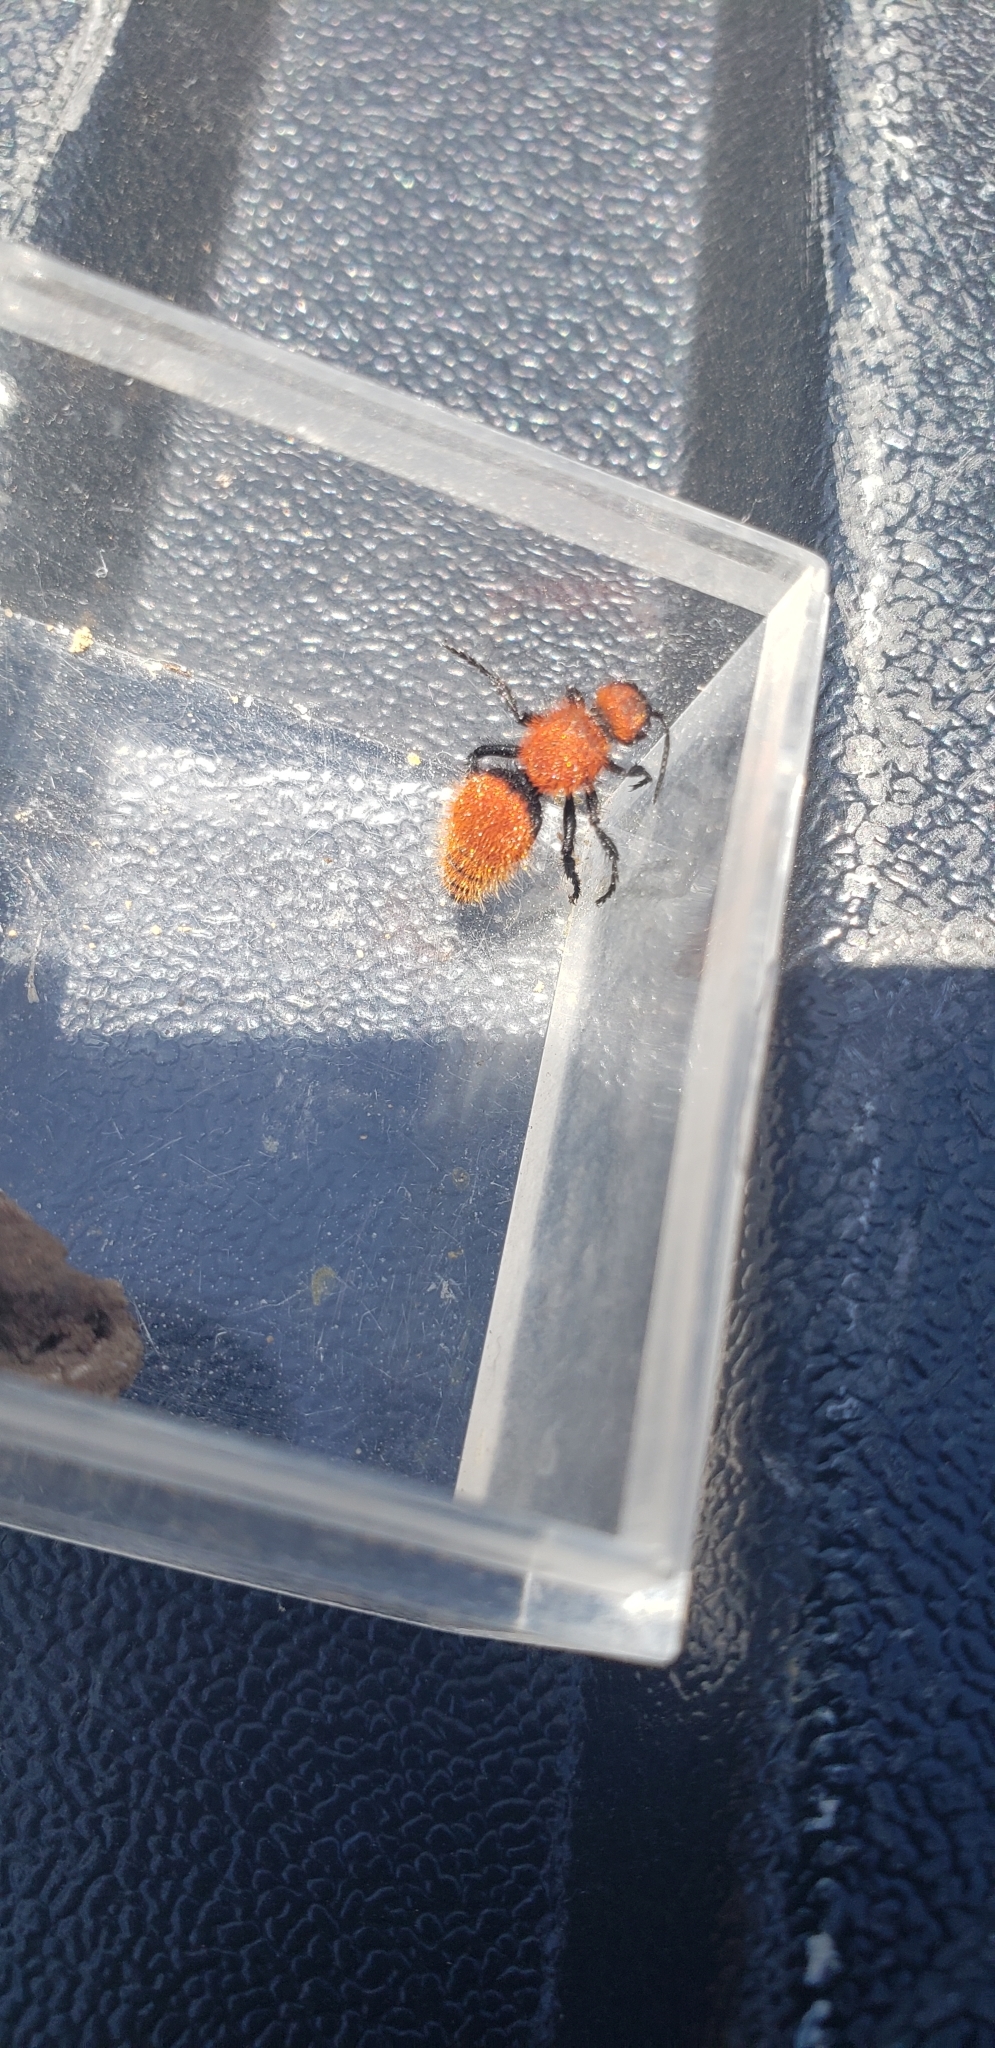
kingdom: Animalia
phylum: Arthropoda
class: Insecta
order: Hymenoptera
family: Mutillidae
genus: Dasymutilla
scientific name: Dasymutilla vestita
